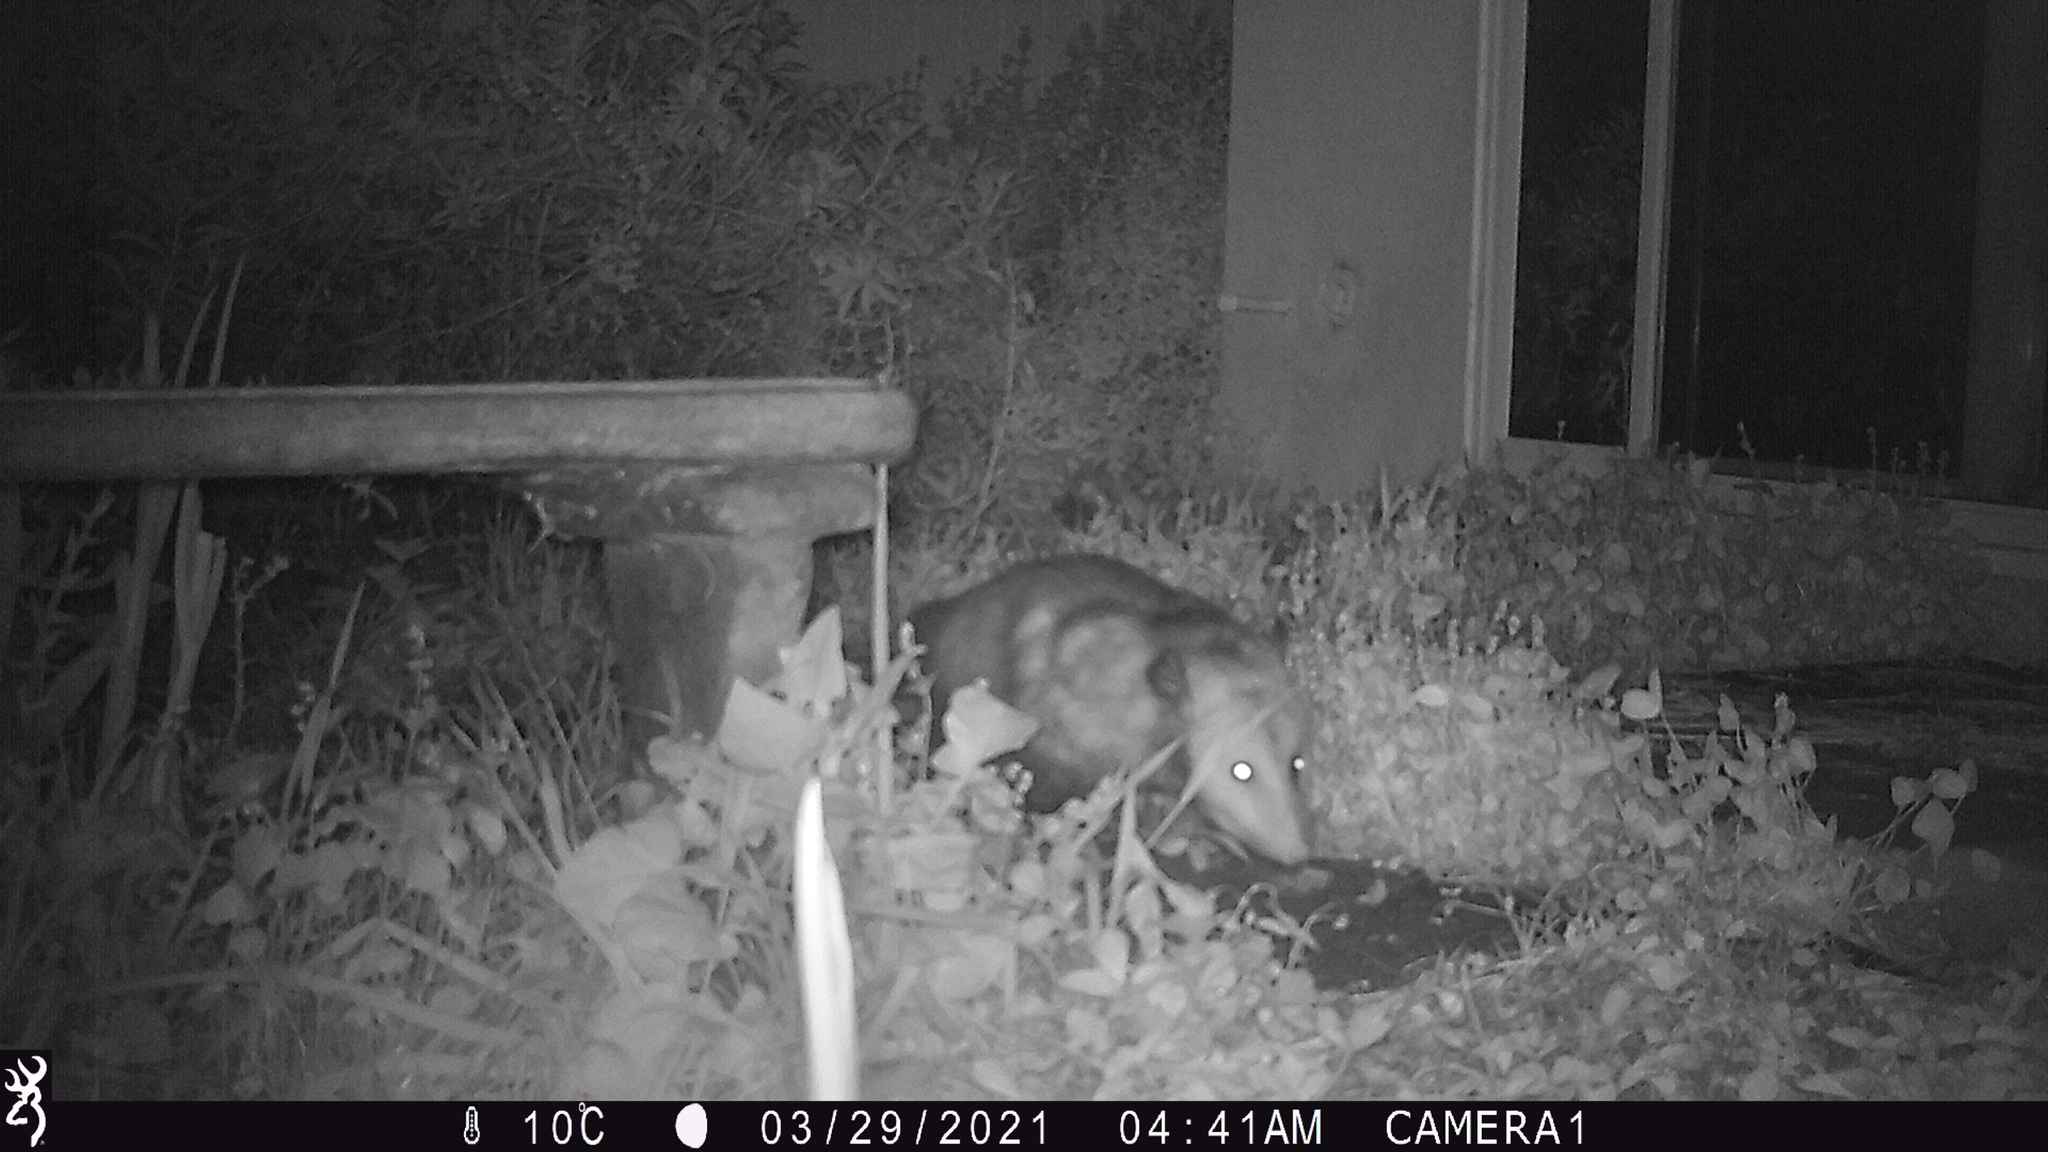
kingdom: Animalia
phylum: Chordata
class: Mammalia
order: Didelphimorphia
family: Didelphidae
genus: Didelphis
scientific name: Didelphis virginiana
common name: Virginia opossum
